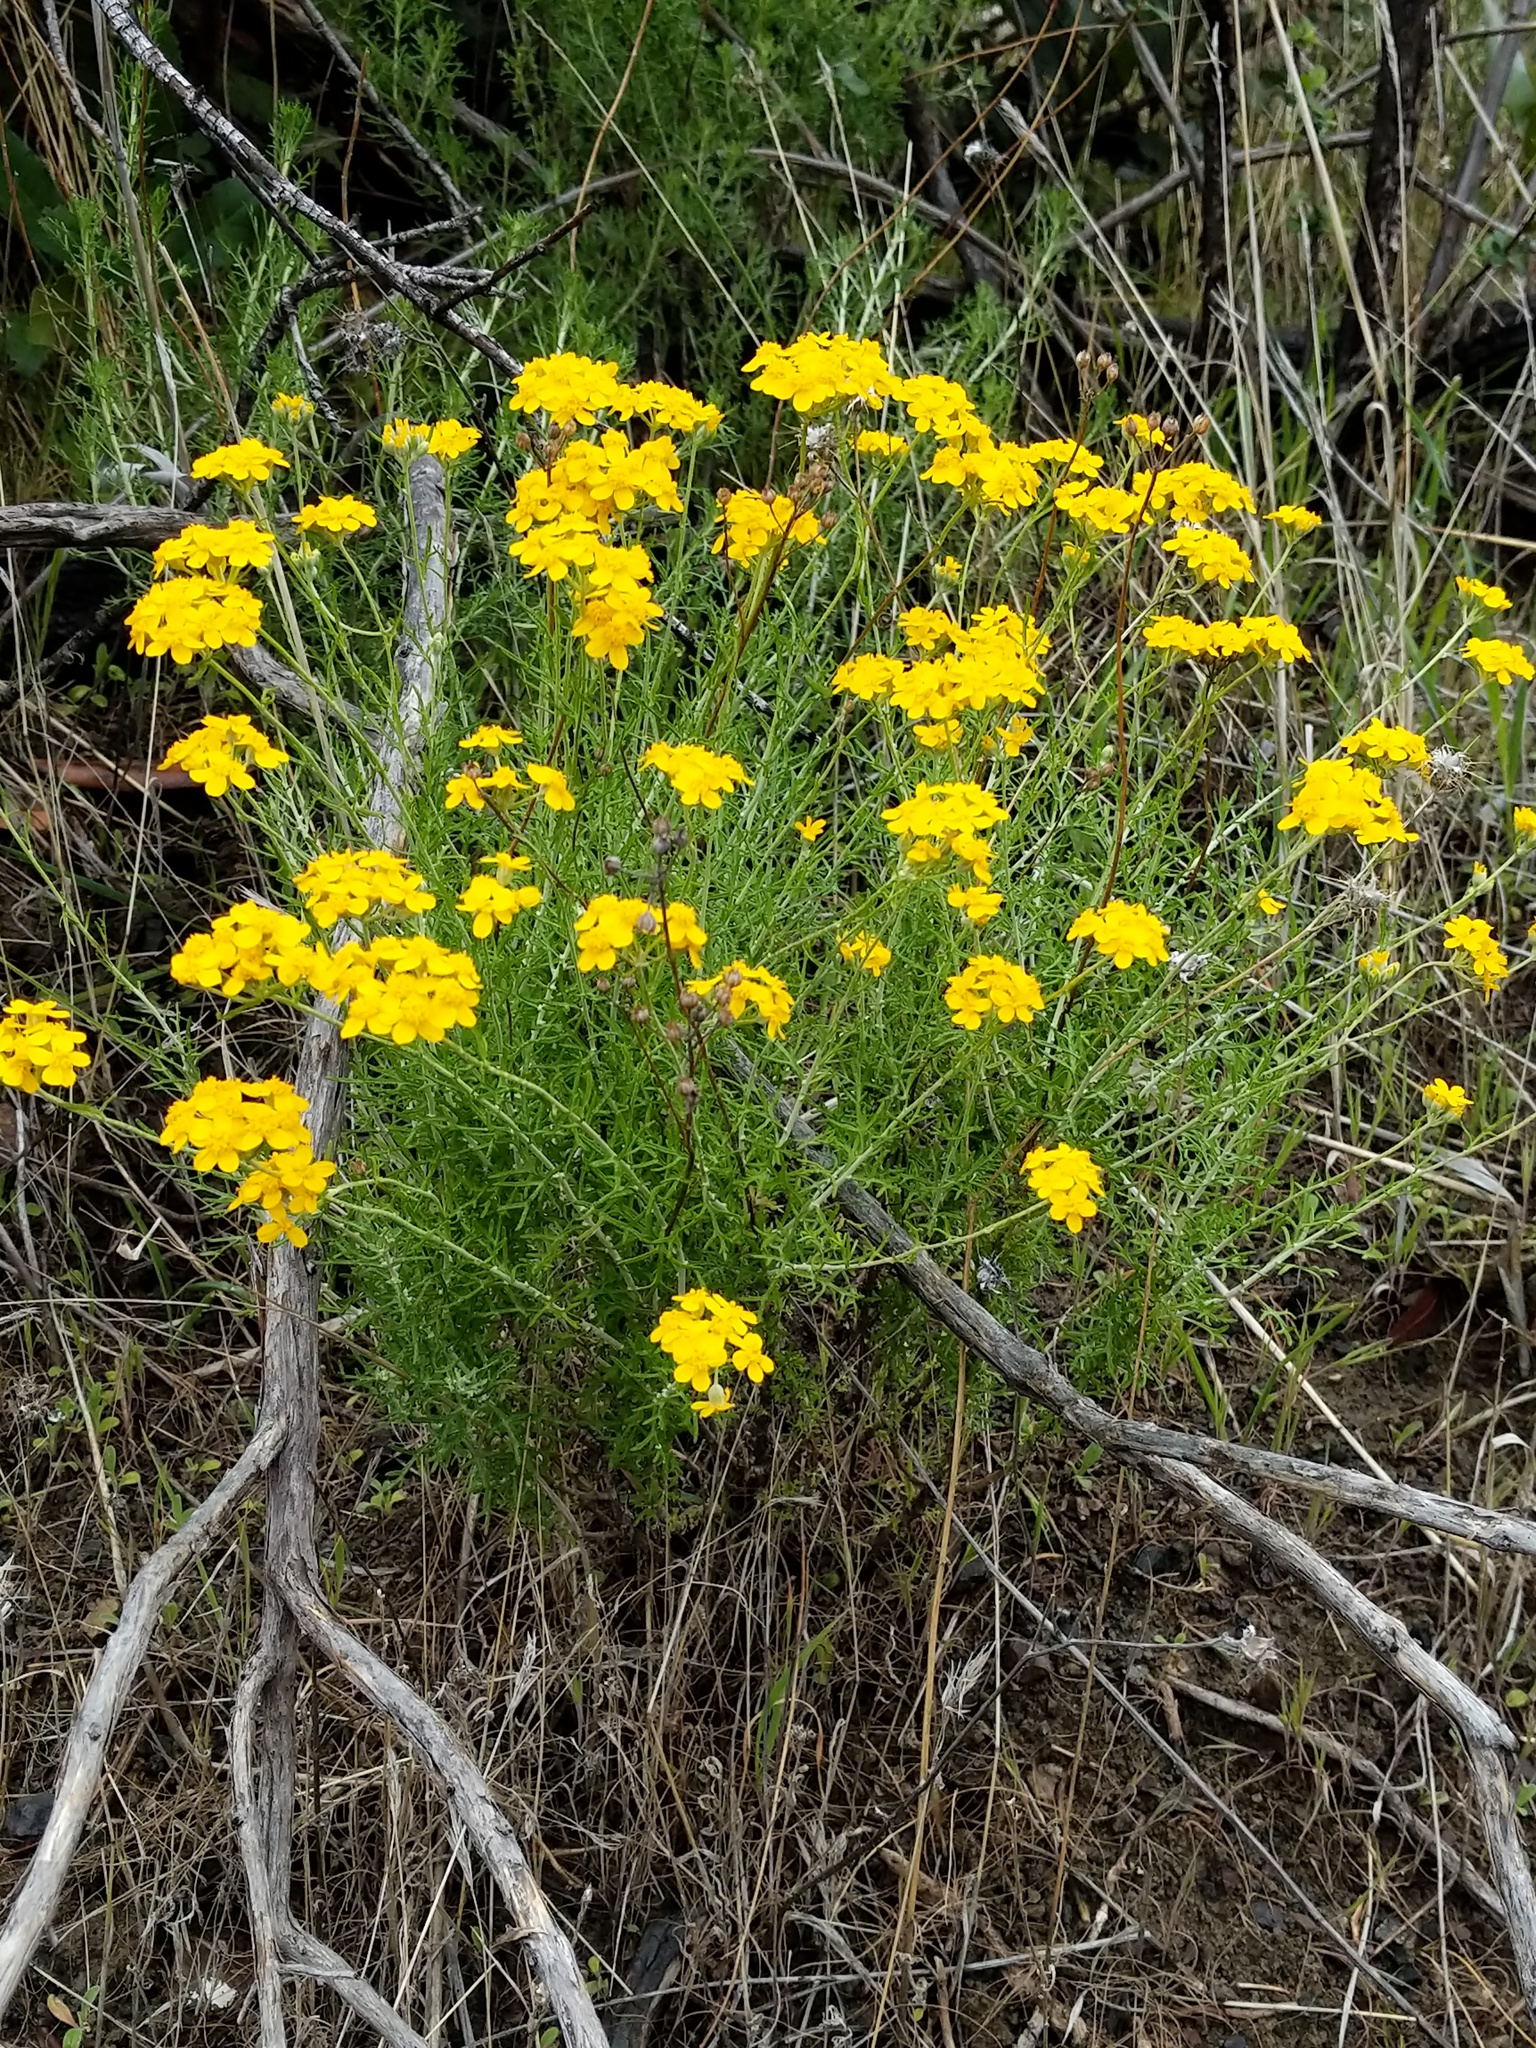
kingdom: Plantae
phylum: Tracheophyta
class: Magnoliopsida
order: Asterales
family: Asteraceae
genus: Eriophyllum
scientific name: Eriophyllum confertiflorum
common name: Golden-yarrow
